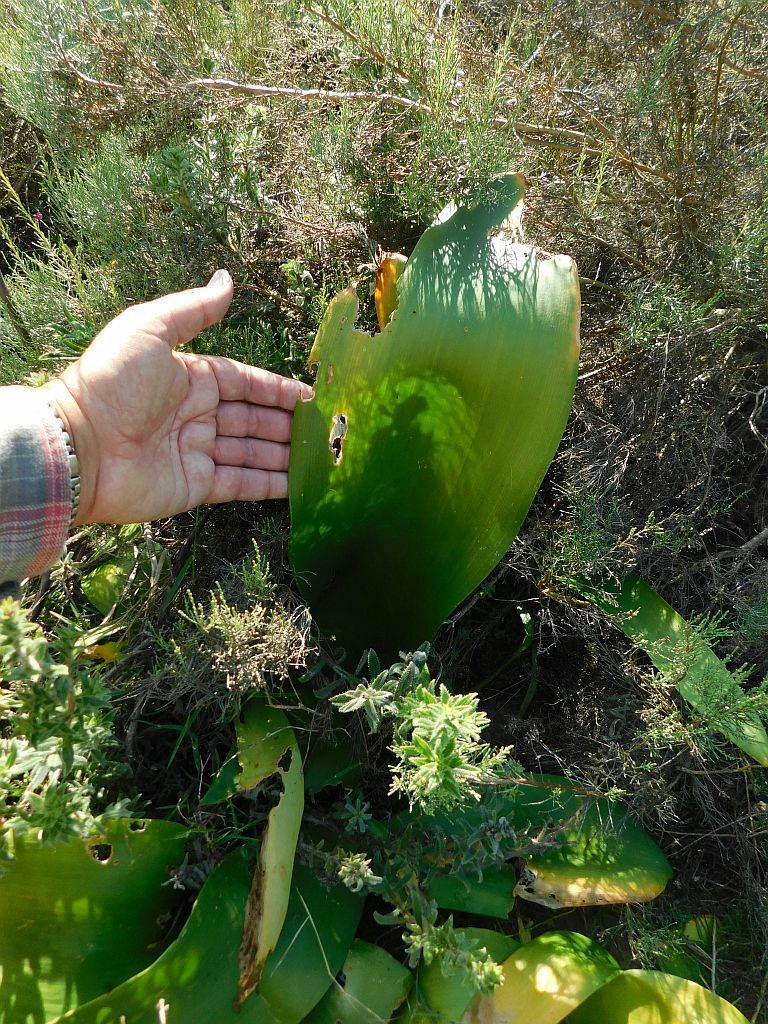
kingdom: Plantae
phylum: Tracheophyta
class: Liliopsida
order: Asparagales
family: Asparagaceae
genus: Drimia
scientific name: Drimia capensis
